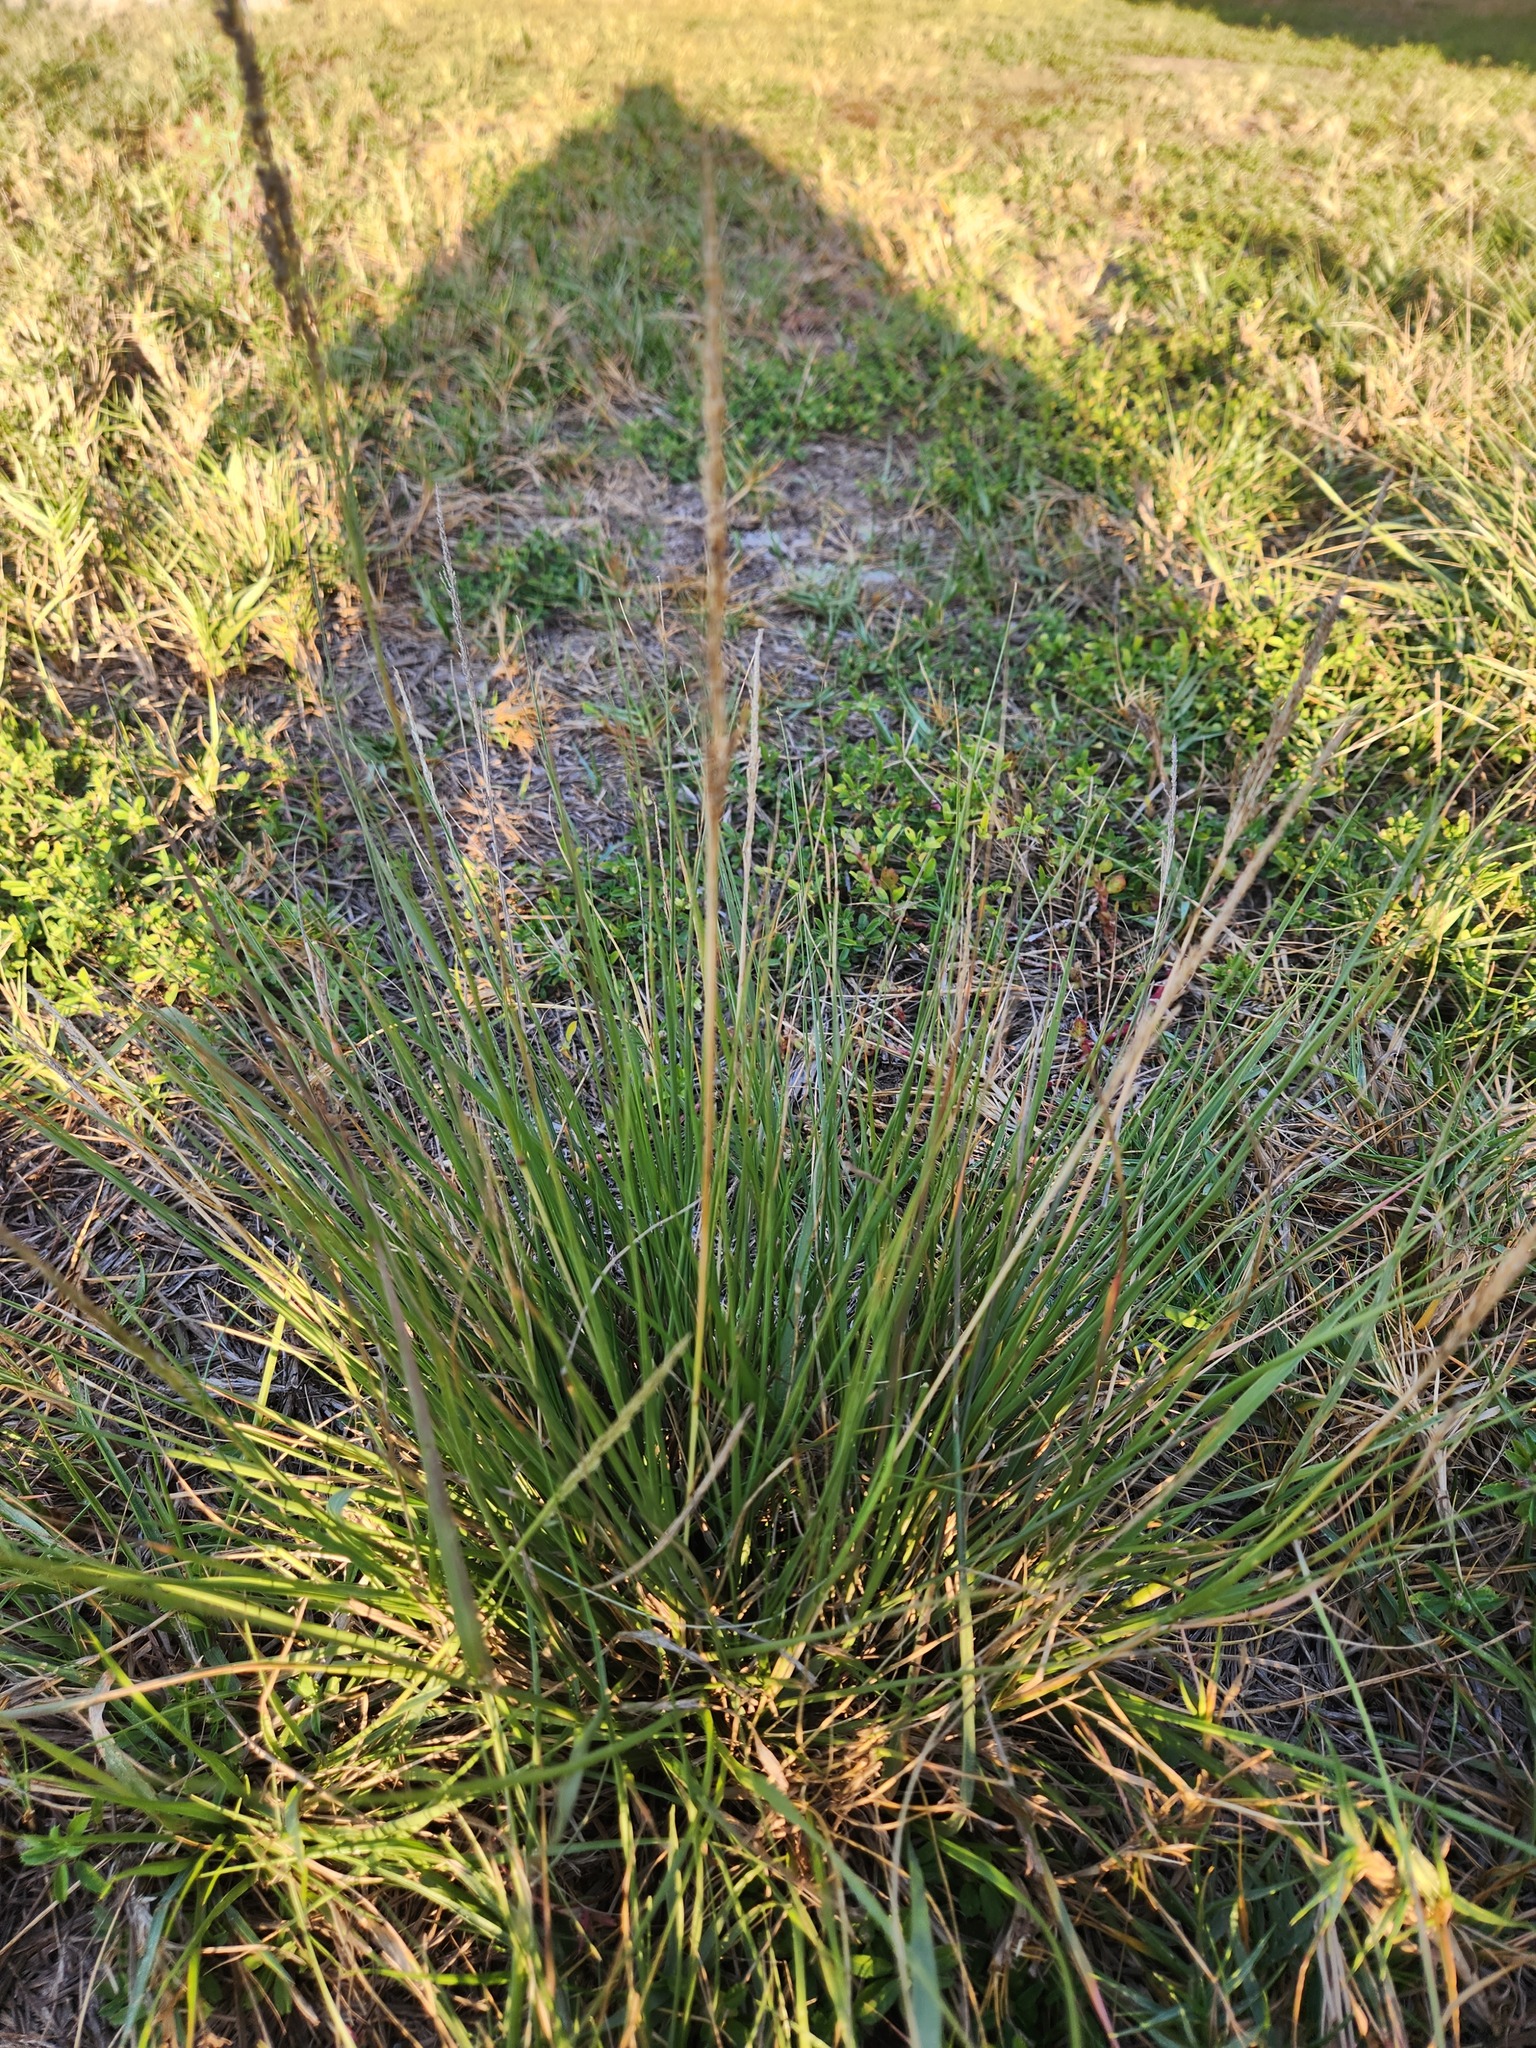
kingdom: Plantae
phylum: Tracheophyta
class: Liliopsida
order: Poales
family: Poaceae
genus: Sporobolus
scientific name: Sporobolus domingensis
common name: Coral dropseed
